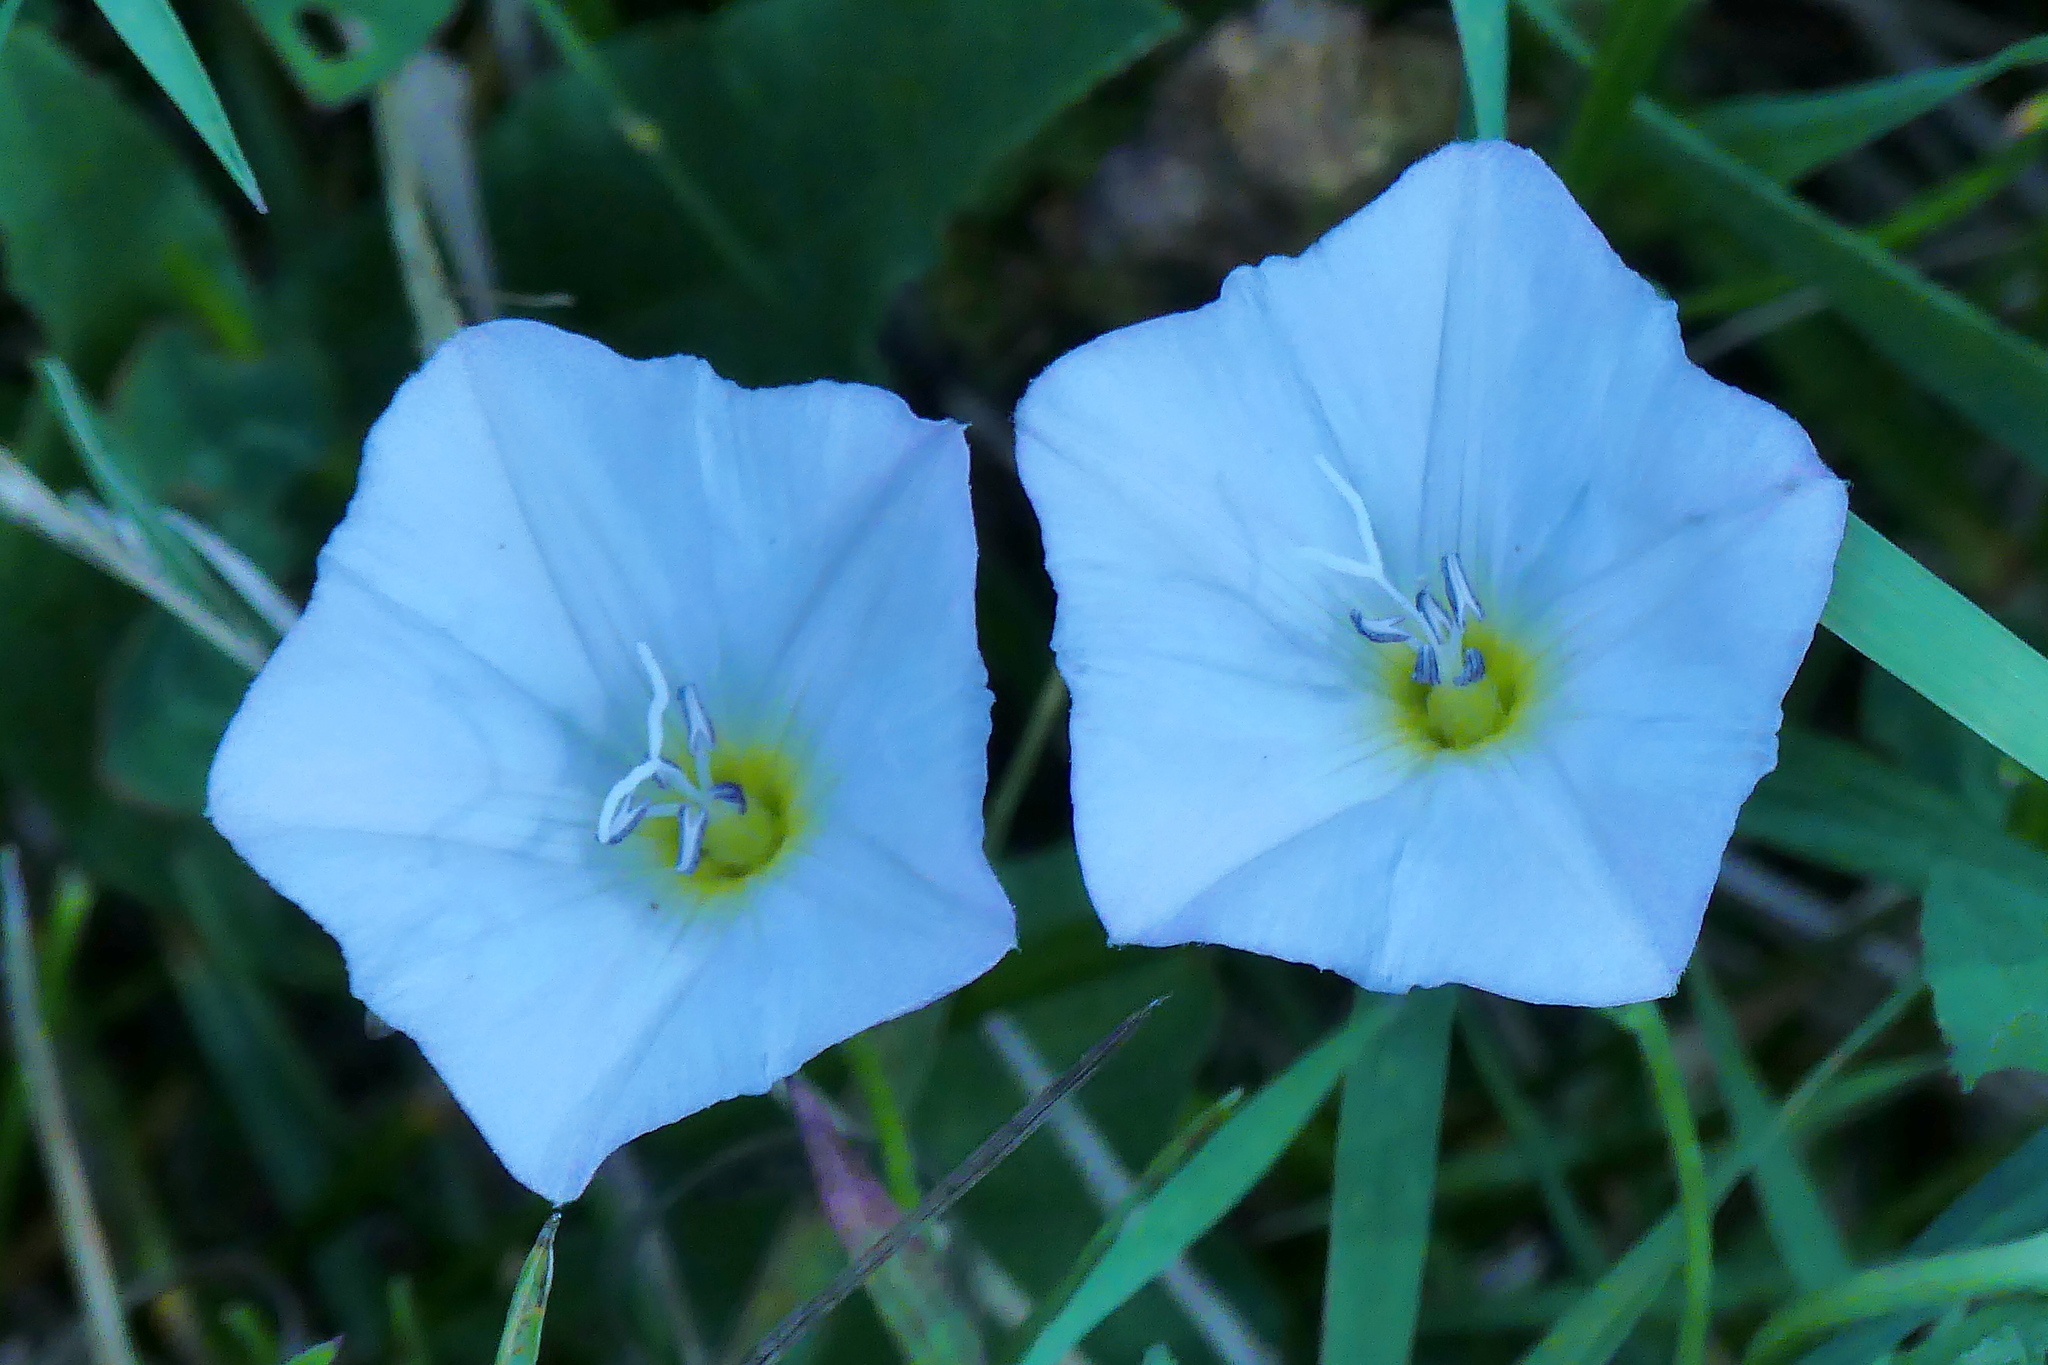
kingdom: Plantae
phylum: Tracheophyta
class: Magnoliopsida
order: Solanales
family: Convolvulaceae
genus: Convolvulus
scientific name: Convolvulus arvensis
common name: Field bindweed
